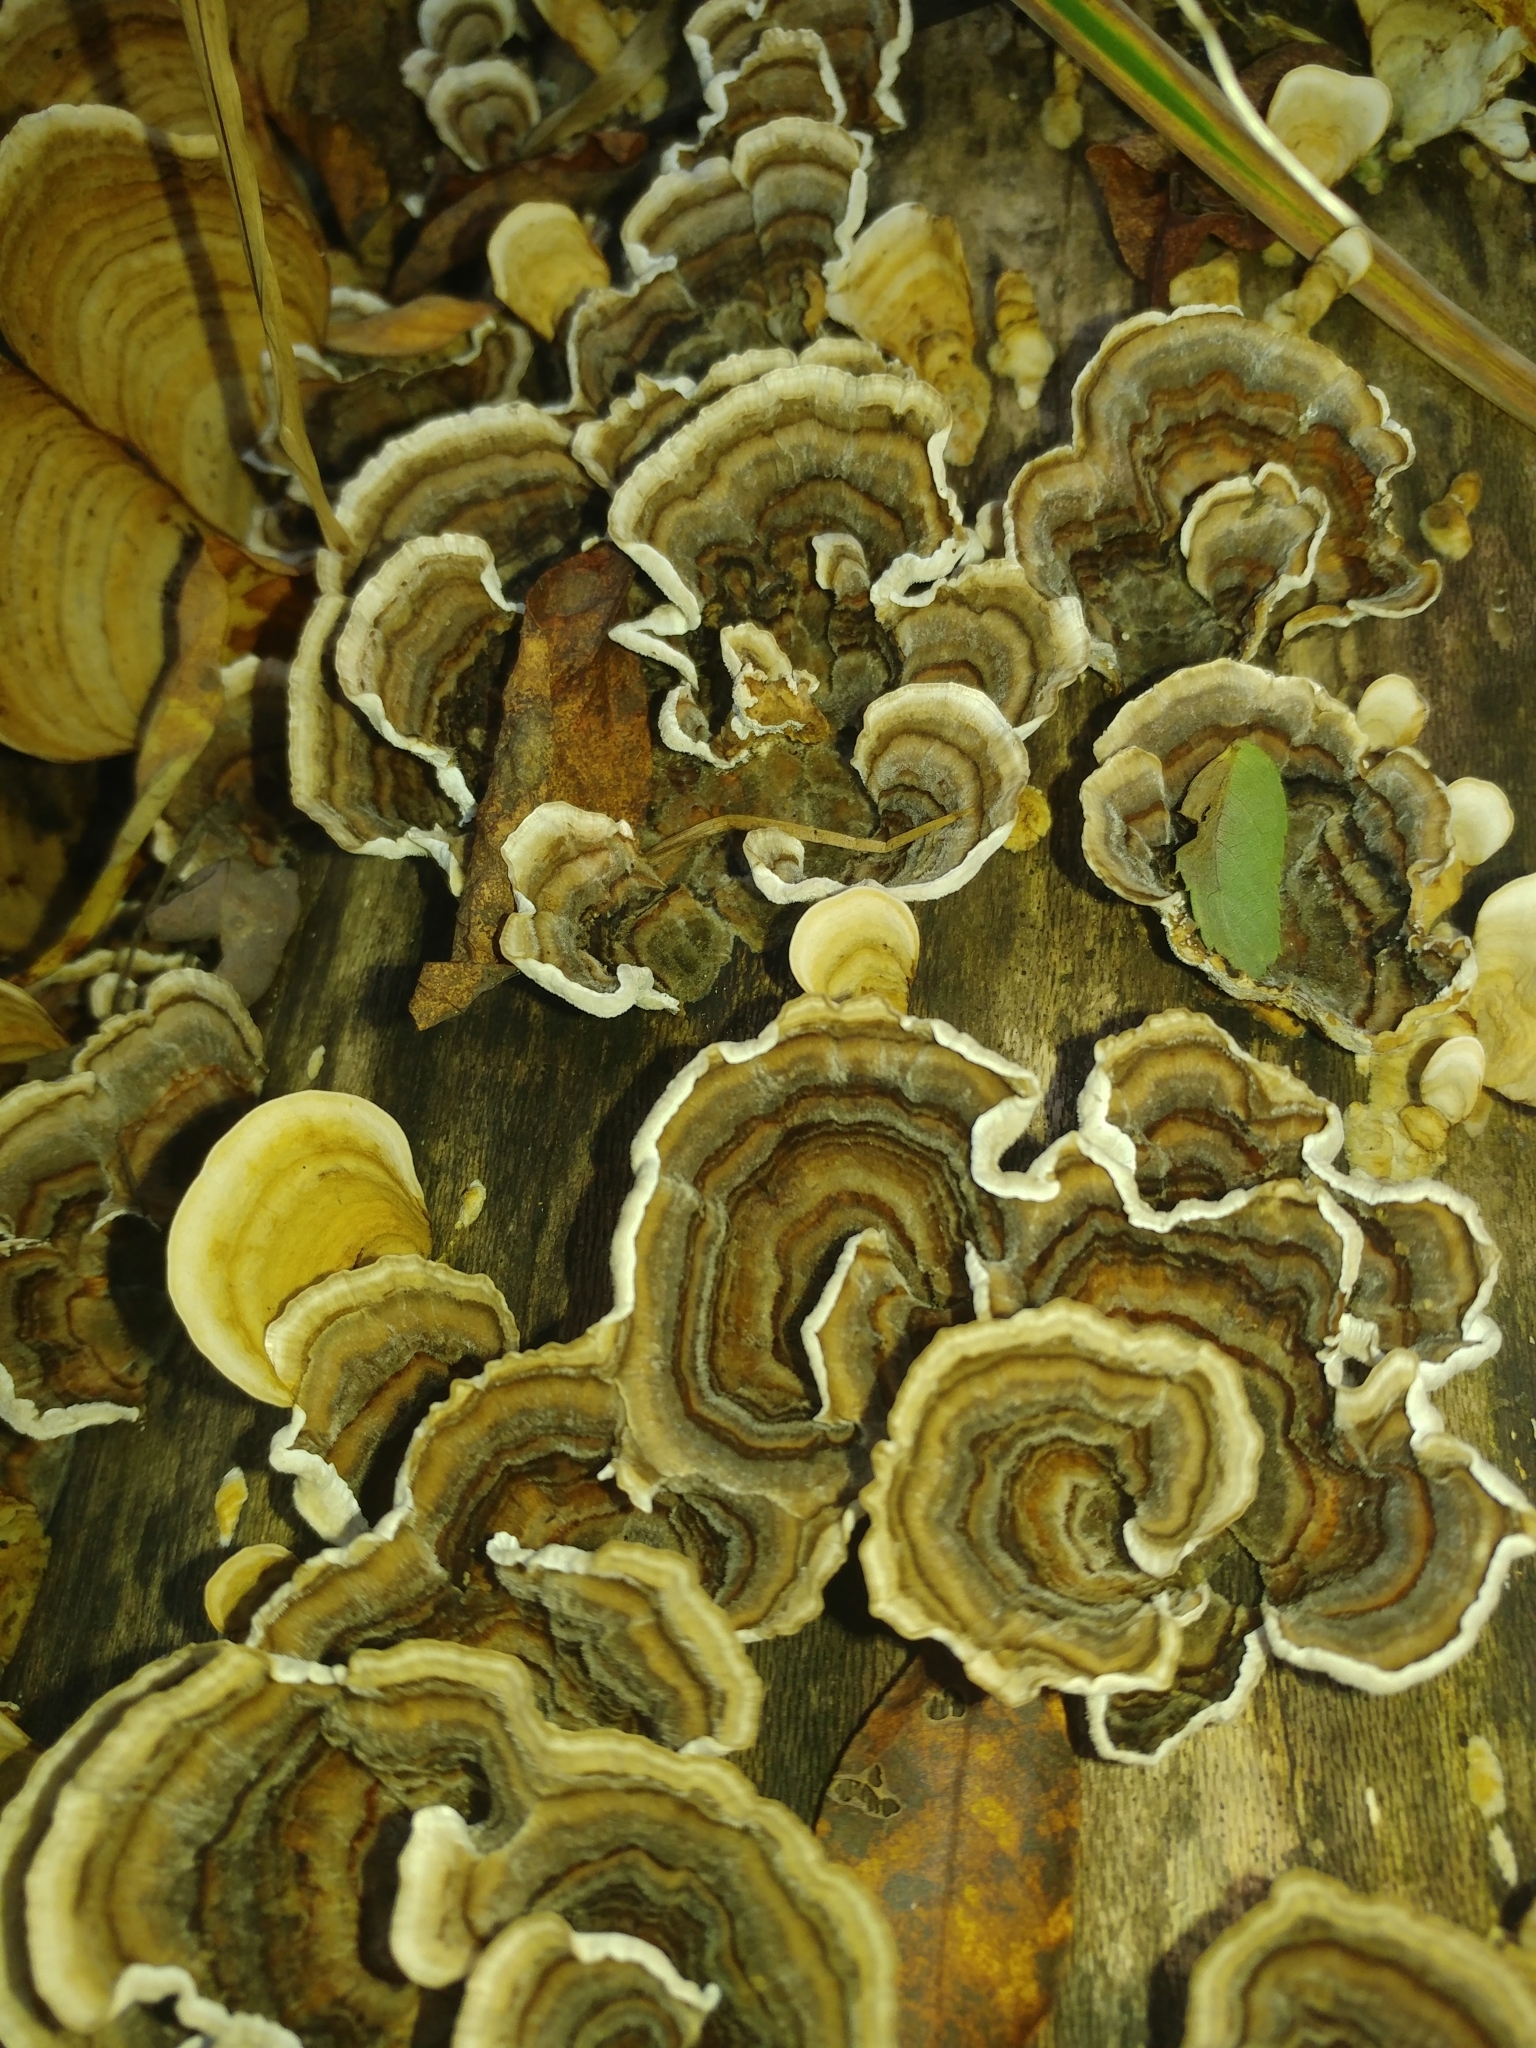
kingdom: Fungi
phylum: Basidiomycota
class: Agaricomycetes
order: Polyporales
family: Polyporaceae
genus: Trametes
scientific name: Trametes versicolor
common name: Turkeytail
